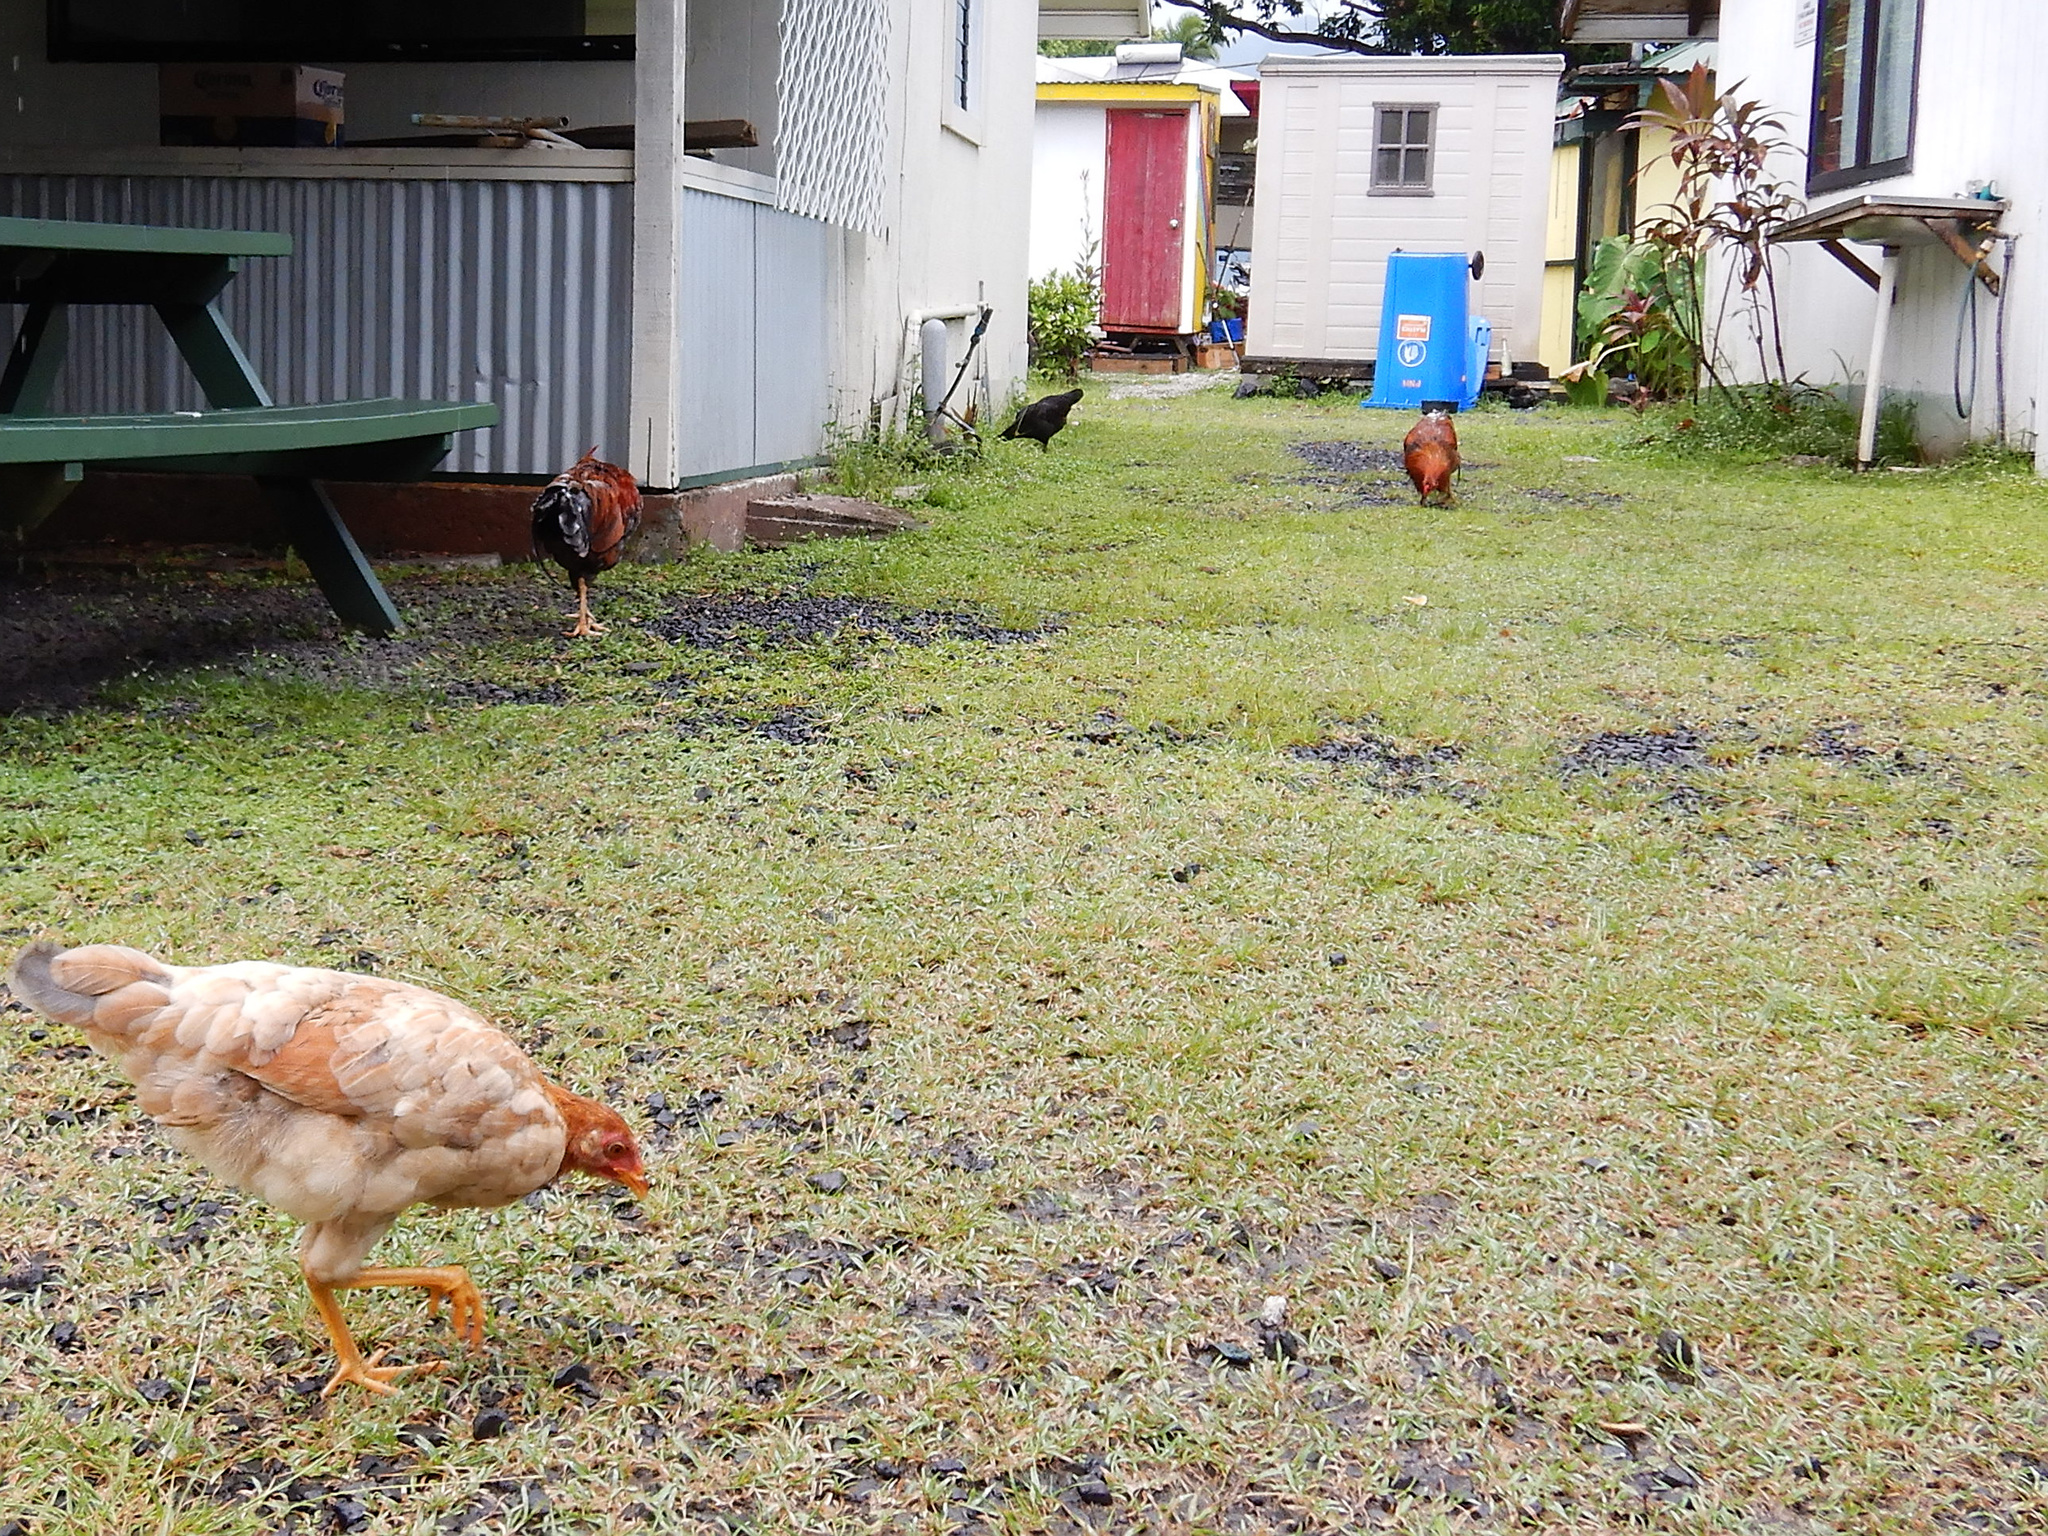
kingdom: Animalia
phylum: Chordata
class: Aves
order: Galliformes
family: Phasianidae
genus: Gallus
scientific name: Gallus gallus
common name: Red junglefowl
